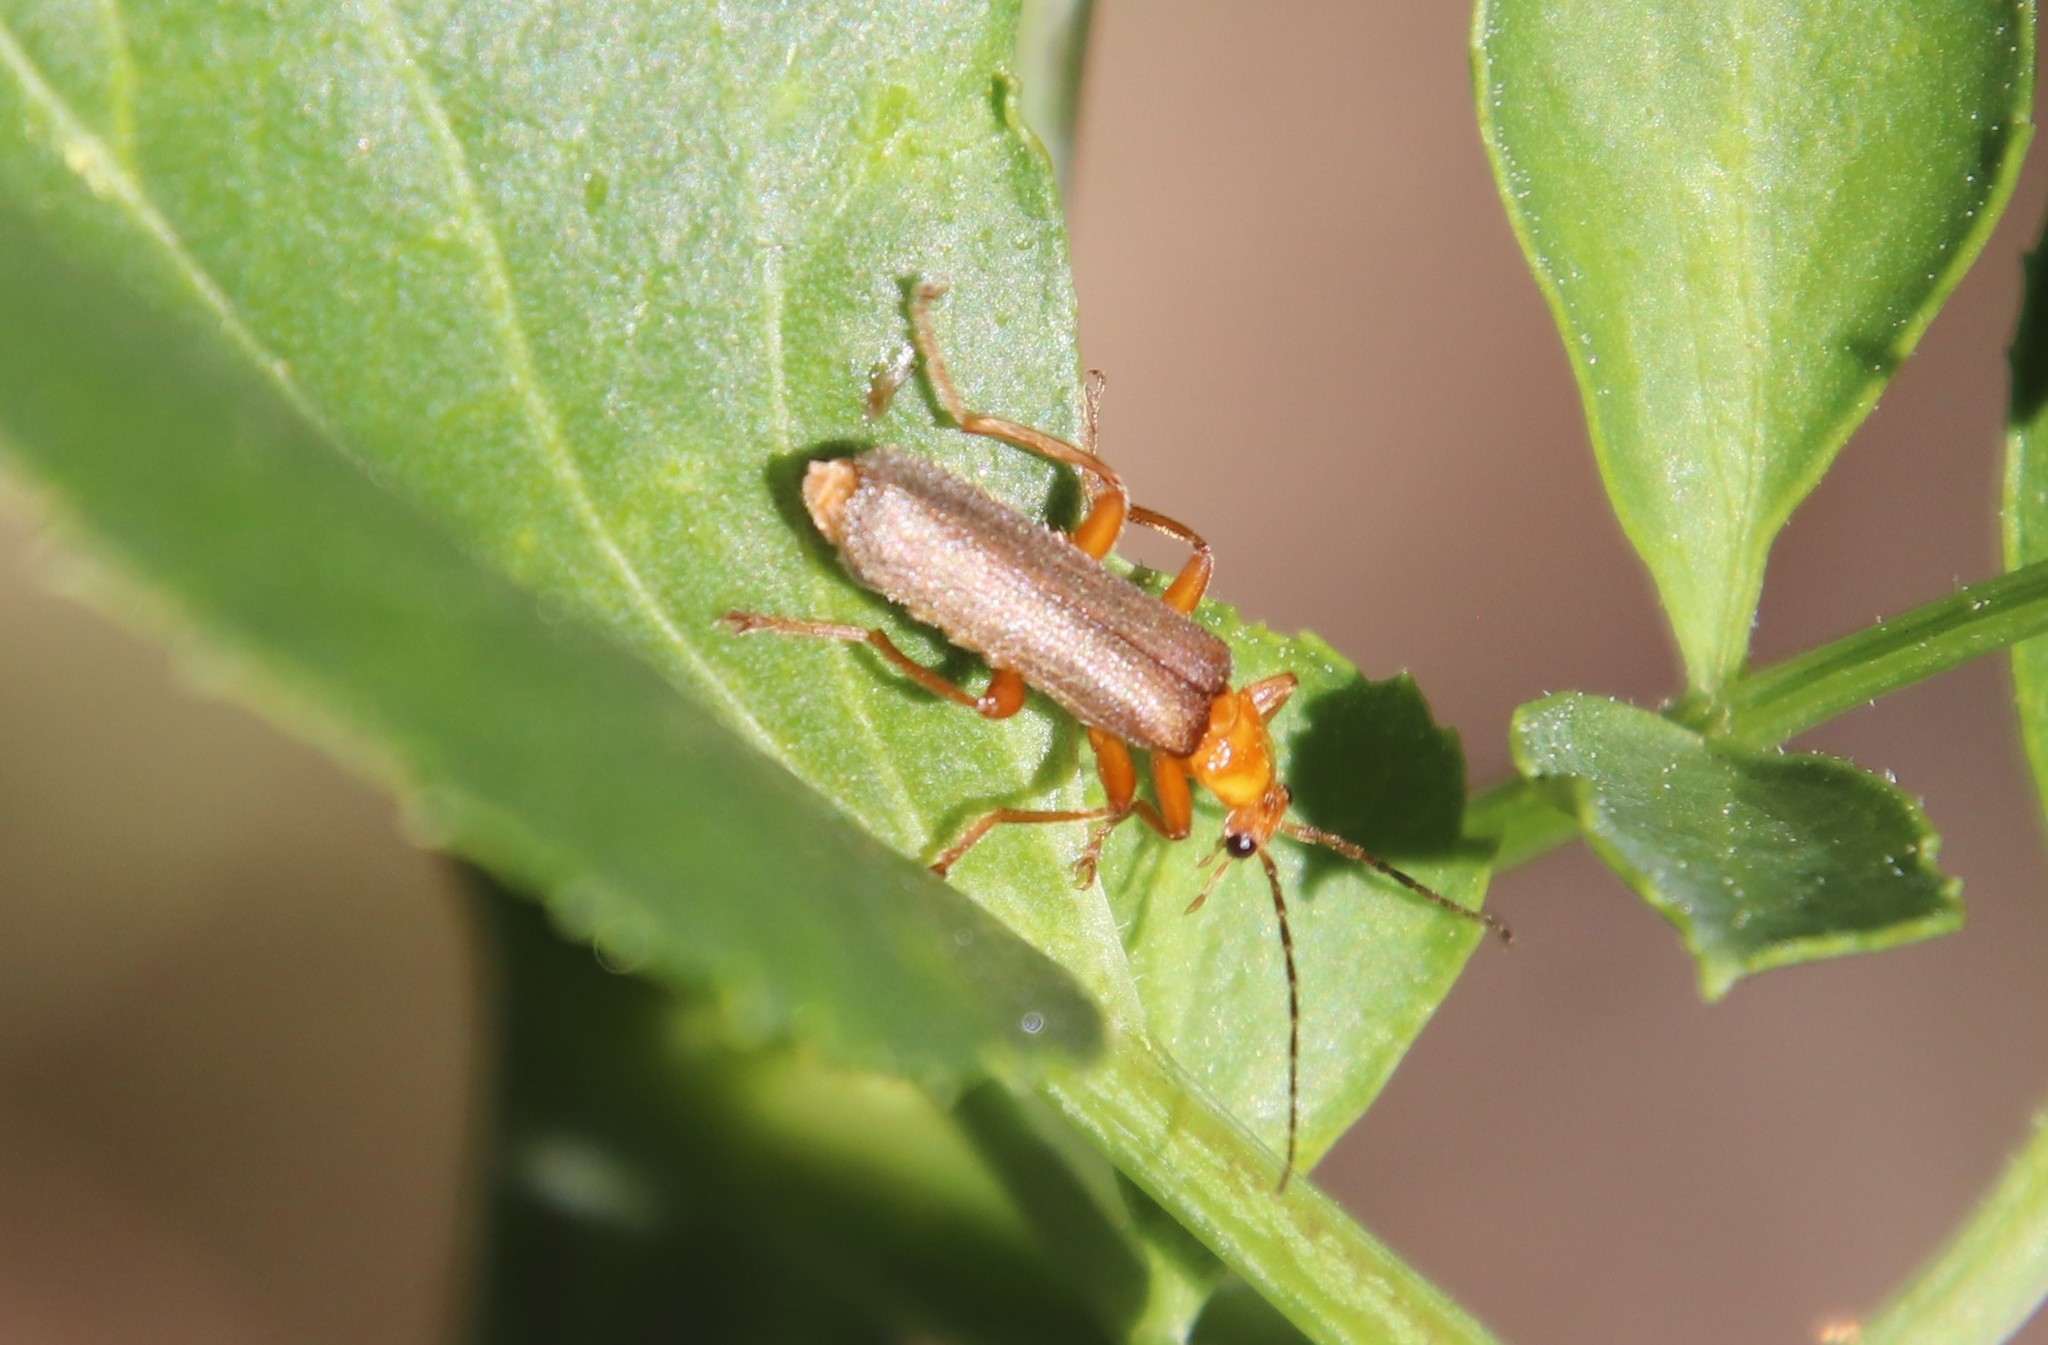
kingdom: Animalia
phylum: Arthropoda
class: Insecta
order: Coleoptera
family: Cantharidae
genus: Cultellunguis
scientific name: Cultellunguis perpallens
